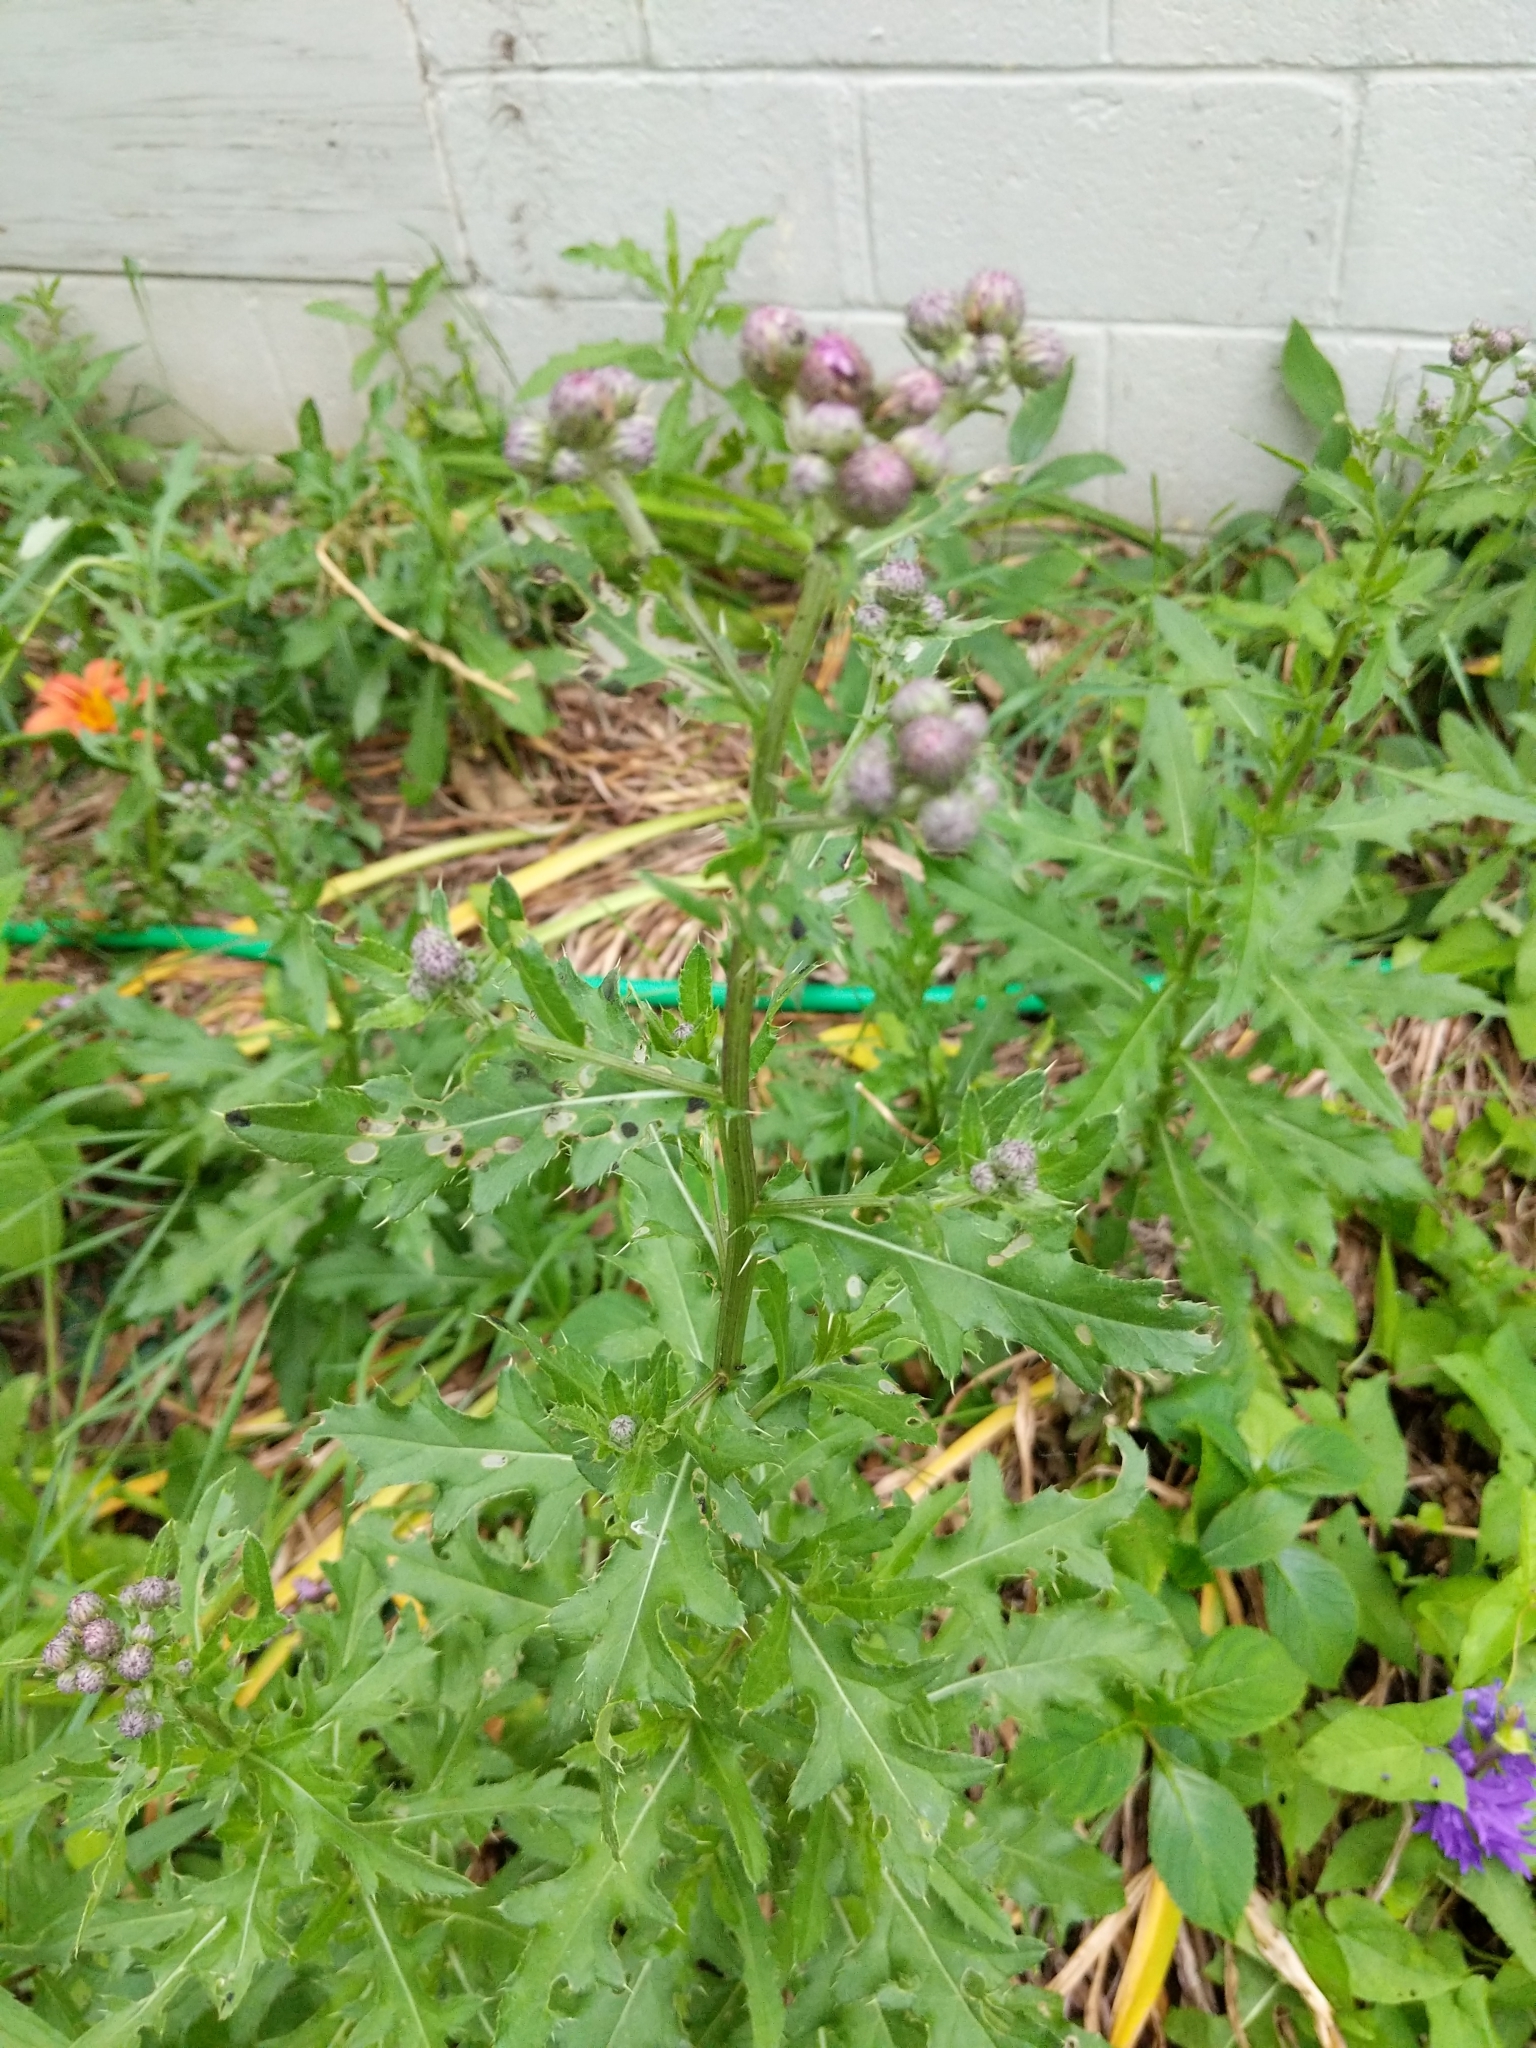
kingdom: Plantae
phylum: Tracheophyta
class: Magnoliopsida
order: Asterales
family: Asteraceae
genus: Cirsium
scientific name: Cirsium arvense
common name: Creeping thistle
